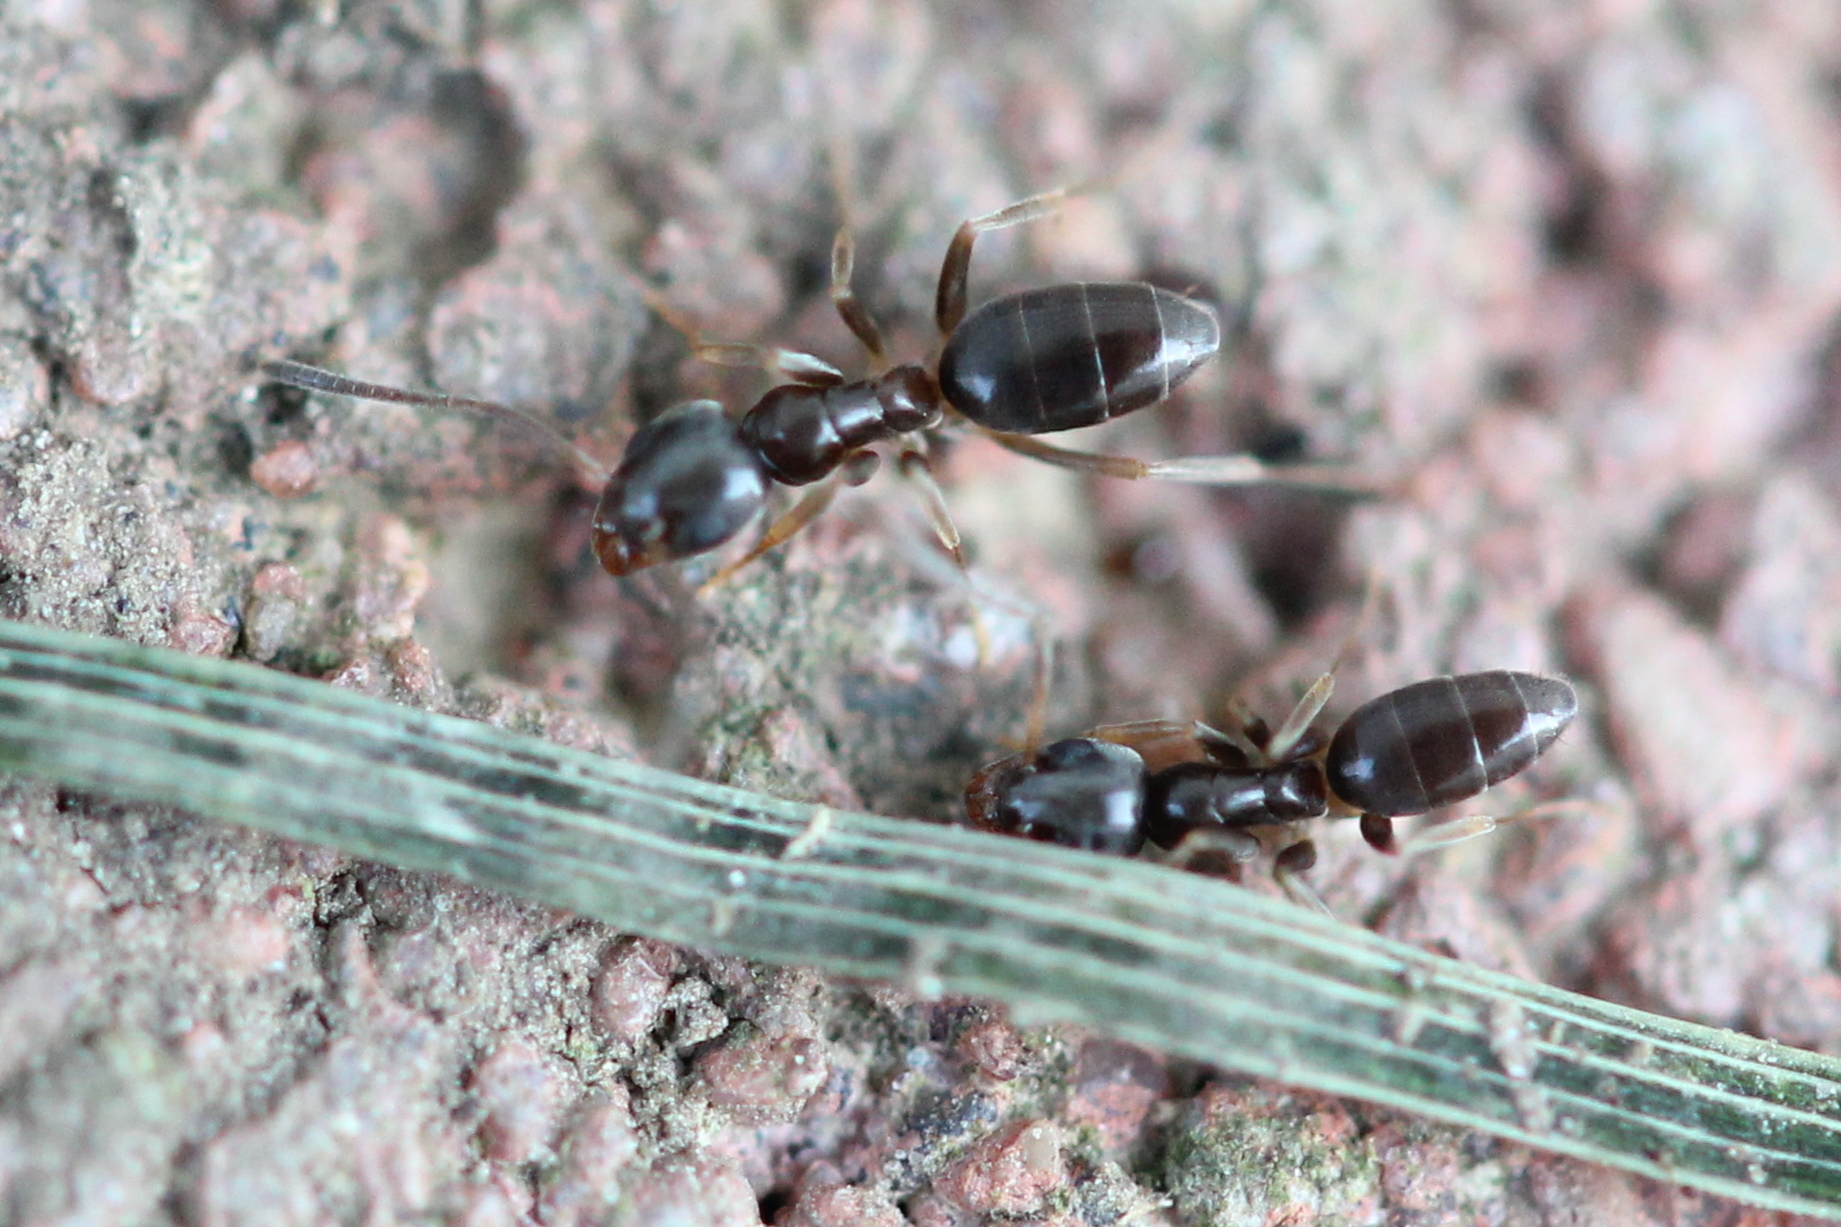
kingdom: Animalia
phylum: Arthropoda
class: Insecta
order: Hymenoptera
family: Formicidae
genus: Tapinoma
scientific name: Tapinoma sessile
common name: Odorous house ant
